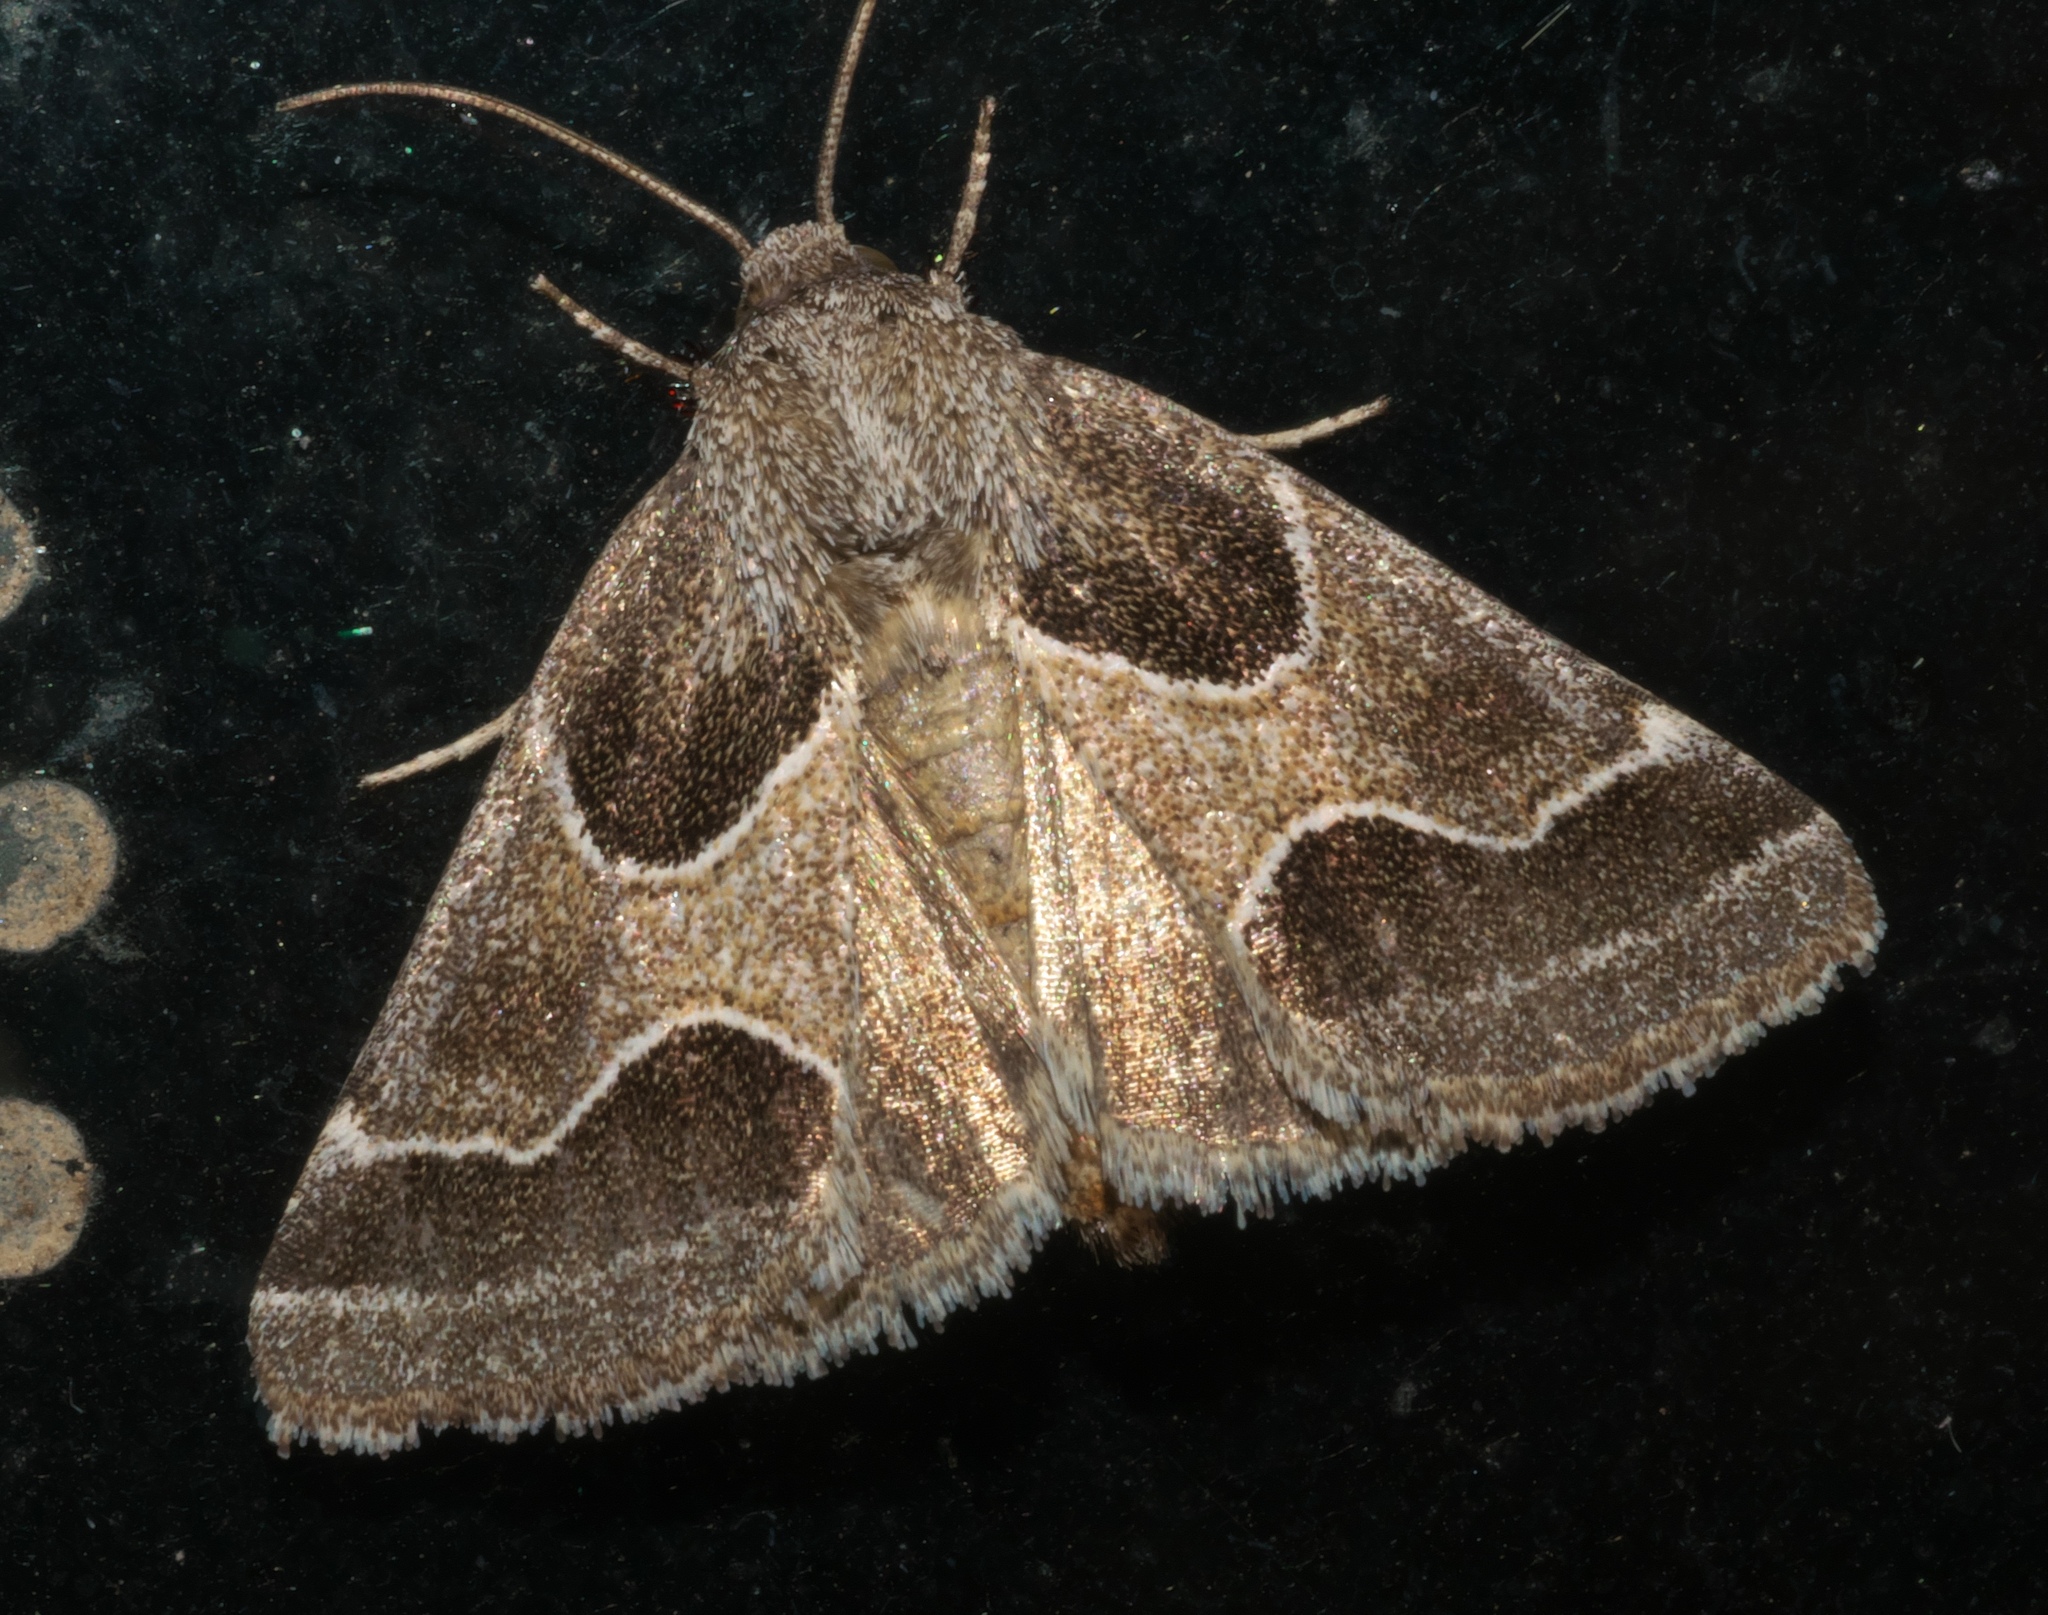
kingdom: Animalia
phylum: Arthropoda
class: Insecta
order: Lepidoptera
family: Noctuidae
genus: Schinia
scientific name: Schinia rivulosa
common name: Scarce meal-moth
